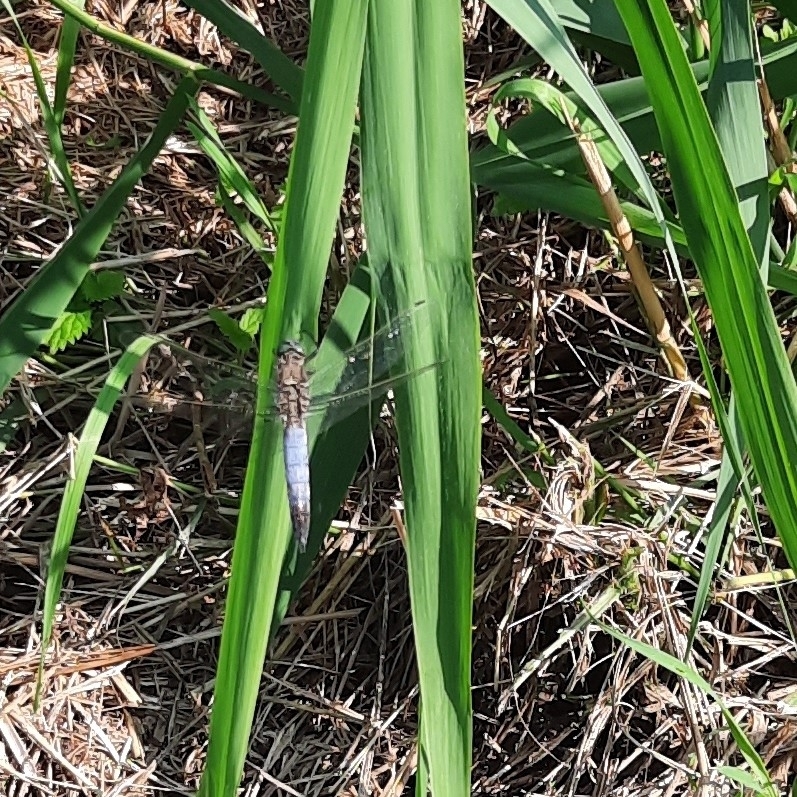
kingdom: Animalia
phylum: Arthropoda
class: Insecta
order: Odonata
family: Libellulidae
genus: Orthetrum
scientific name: Orthetrum cancellatum
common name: Black-tailed skimmer
